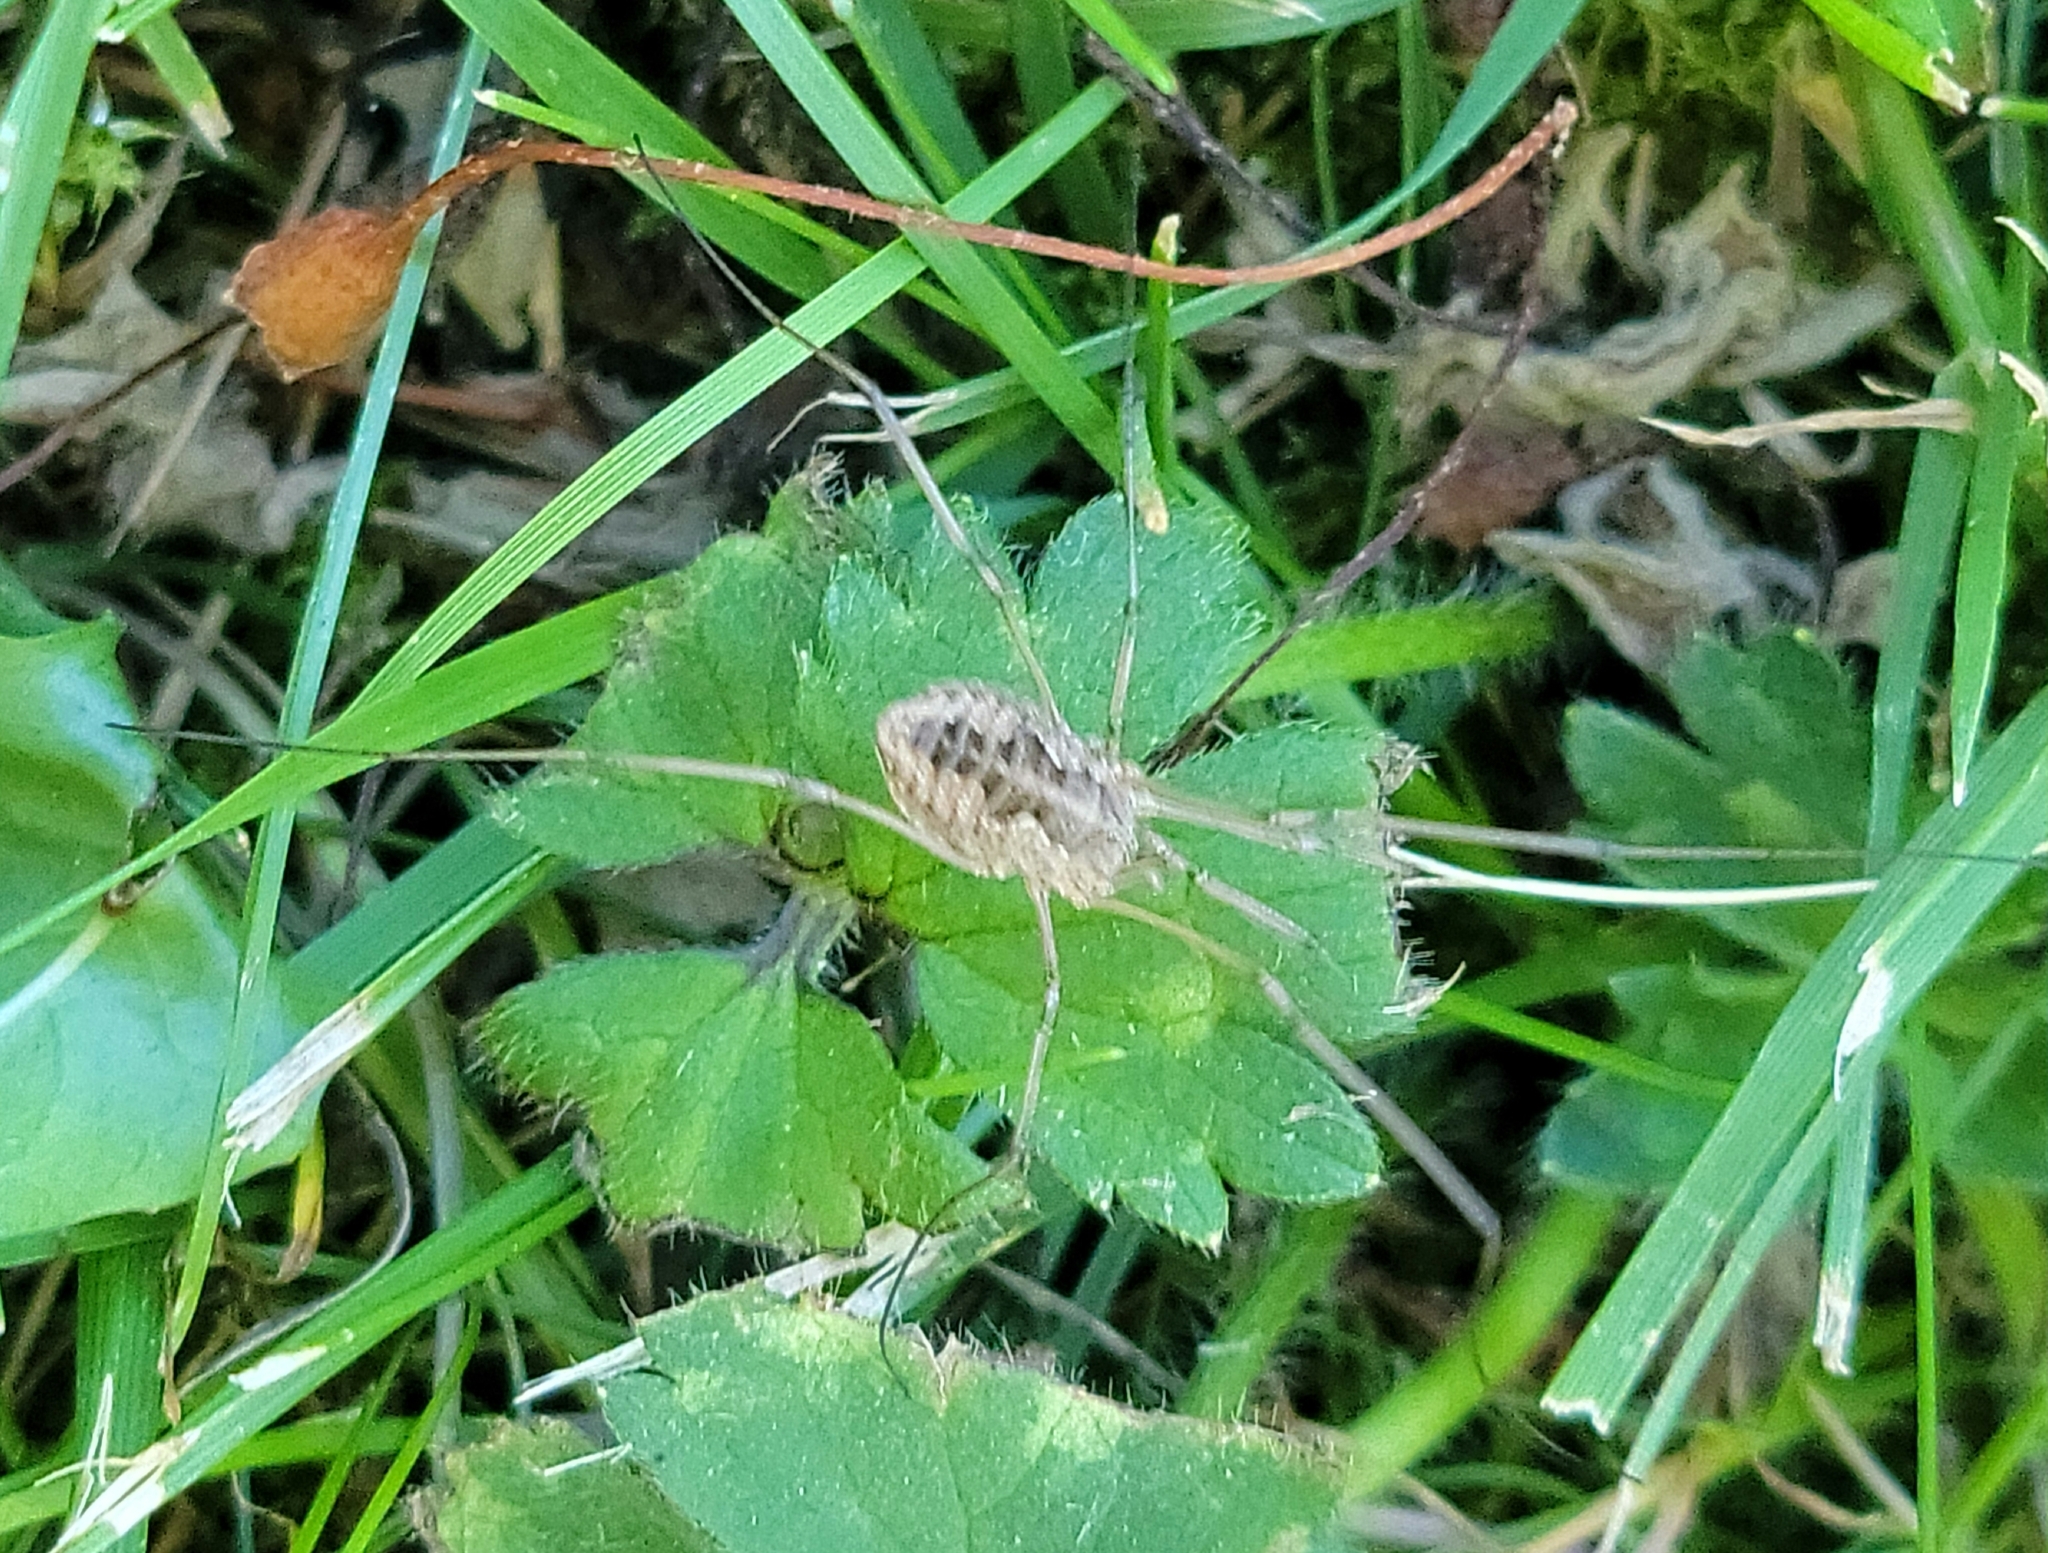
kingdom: Animalia
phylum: Arthropoda
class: Arachnida
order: Opiliones
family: Phalangiidae
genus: Phalangium
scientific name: Phalangium opilio
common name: Daddy longleg
